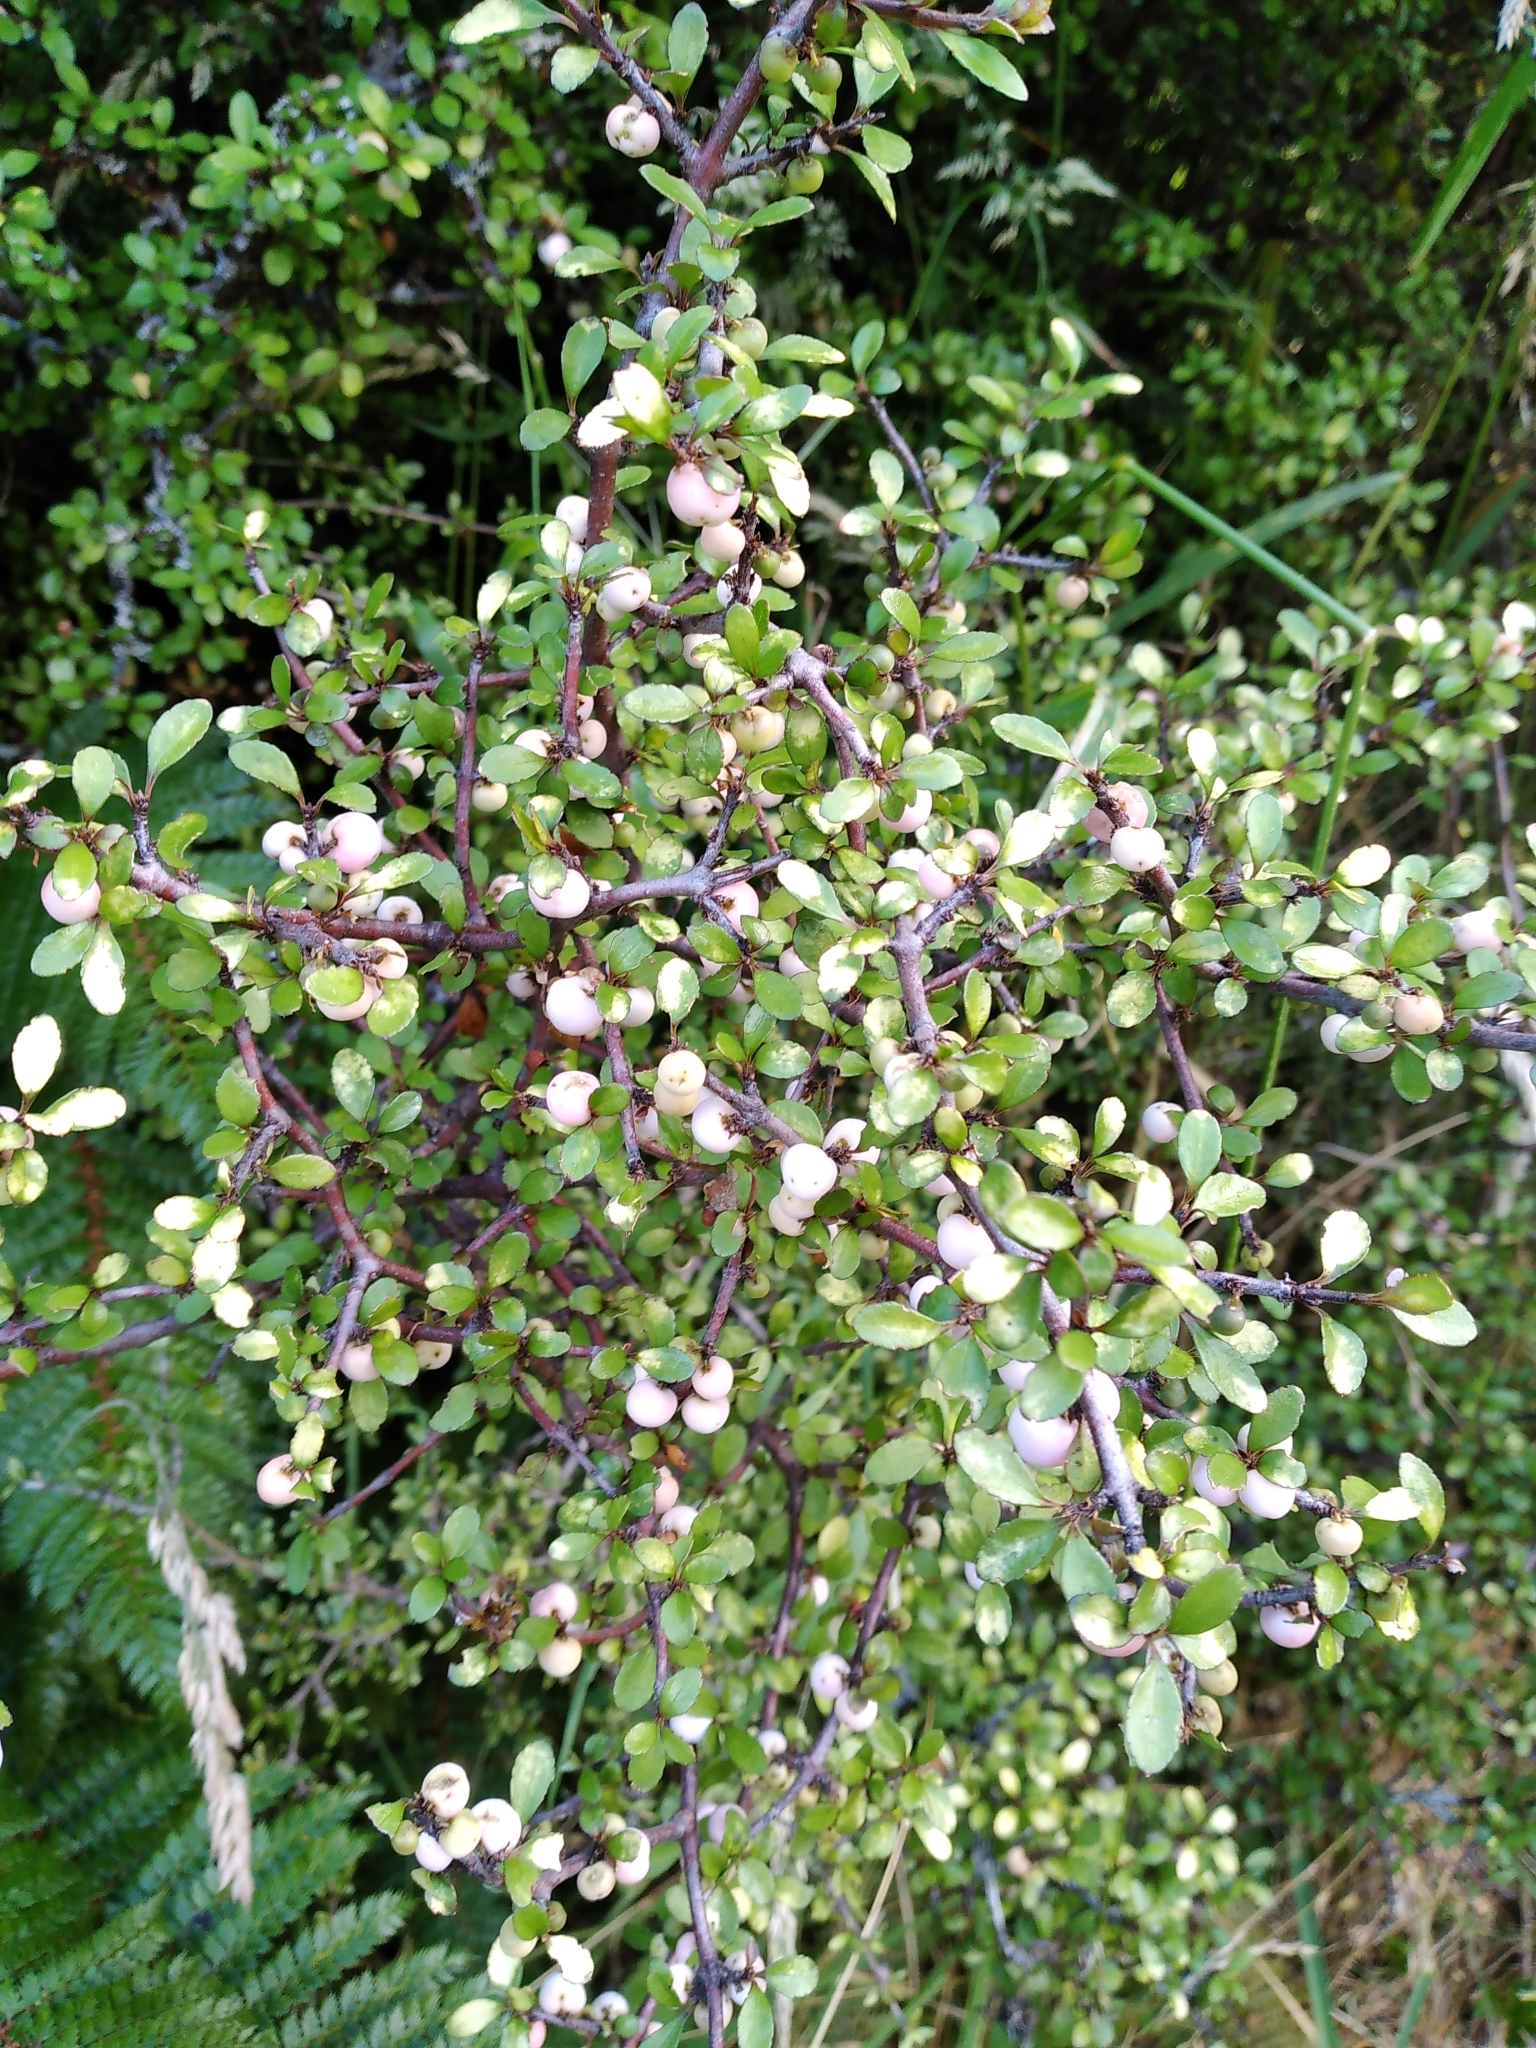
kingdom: Plantae
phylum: Tracheophyta
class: Magnoliopsida
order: Oxalidales
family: Elaeocarpaceae
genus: Aristotelia
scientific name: Aristotelia fruticosa
